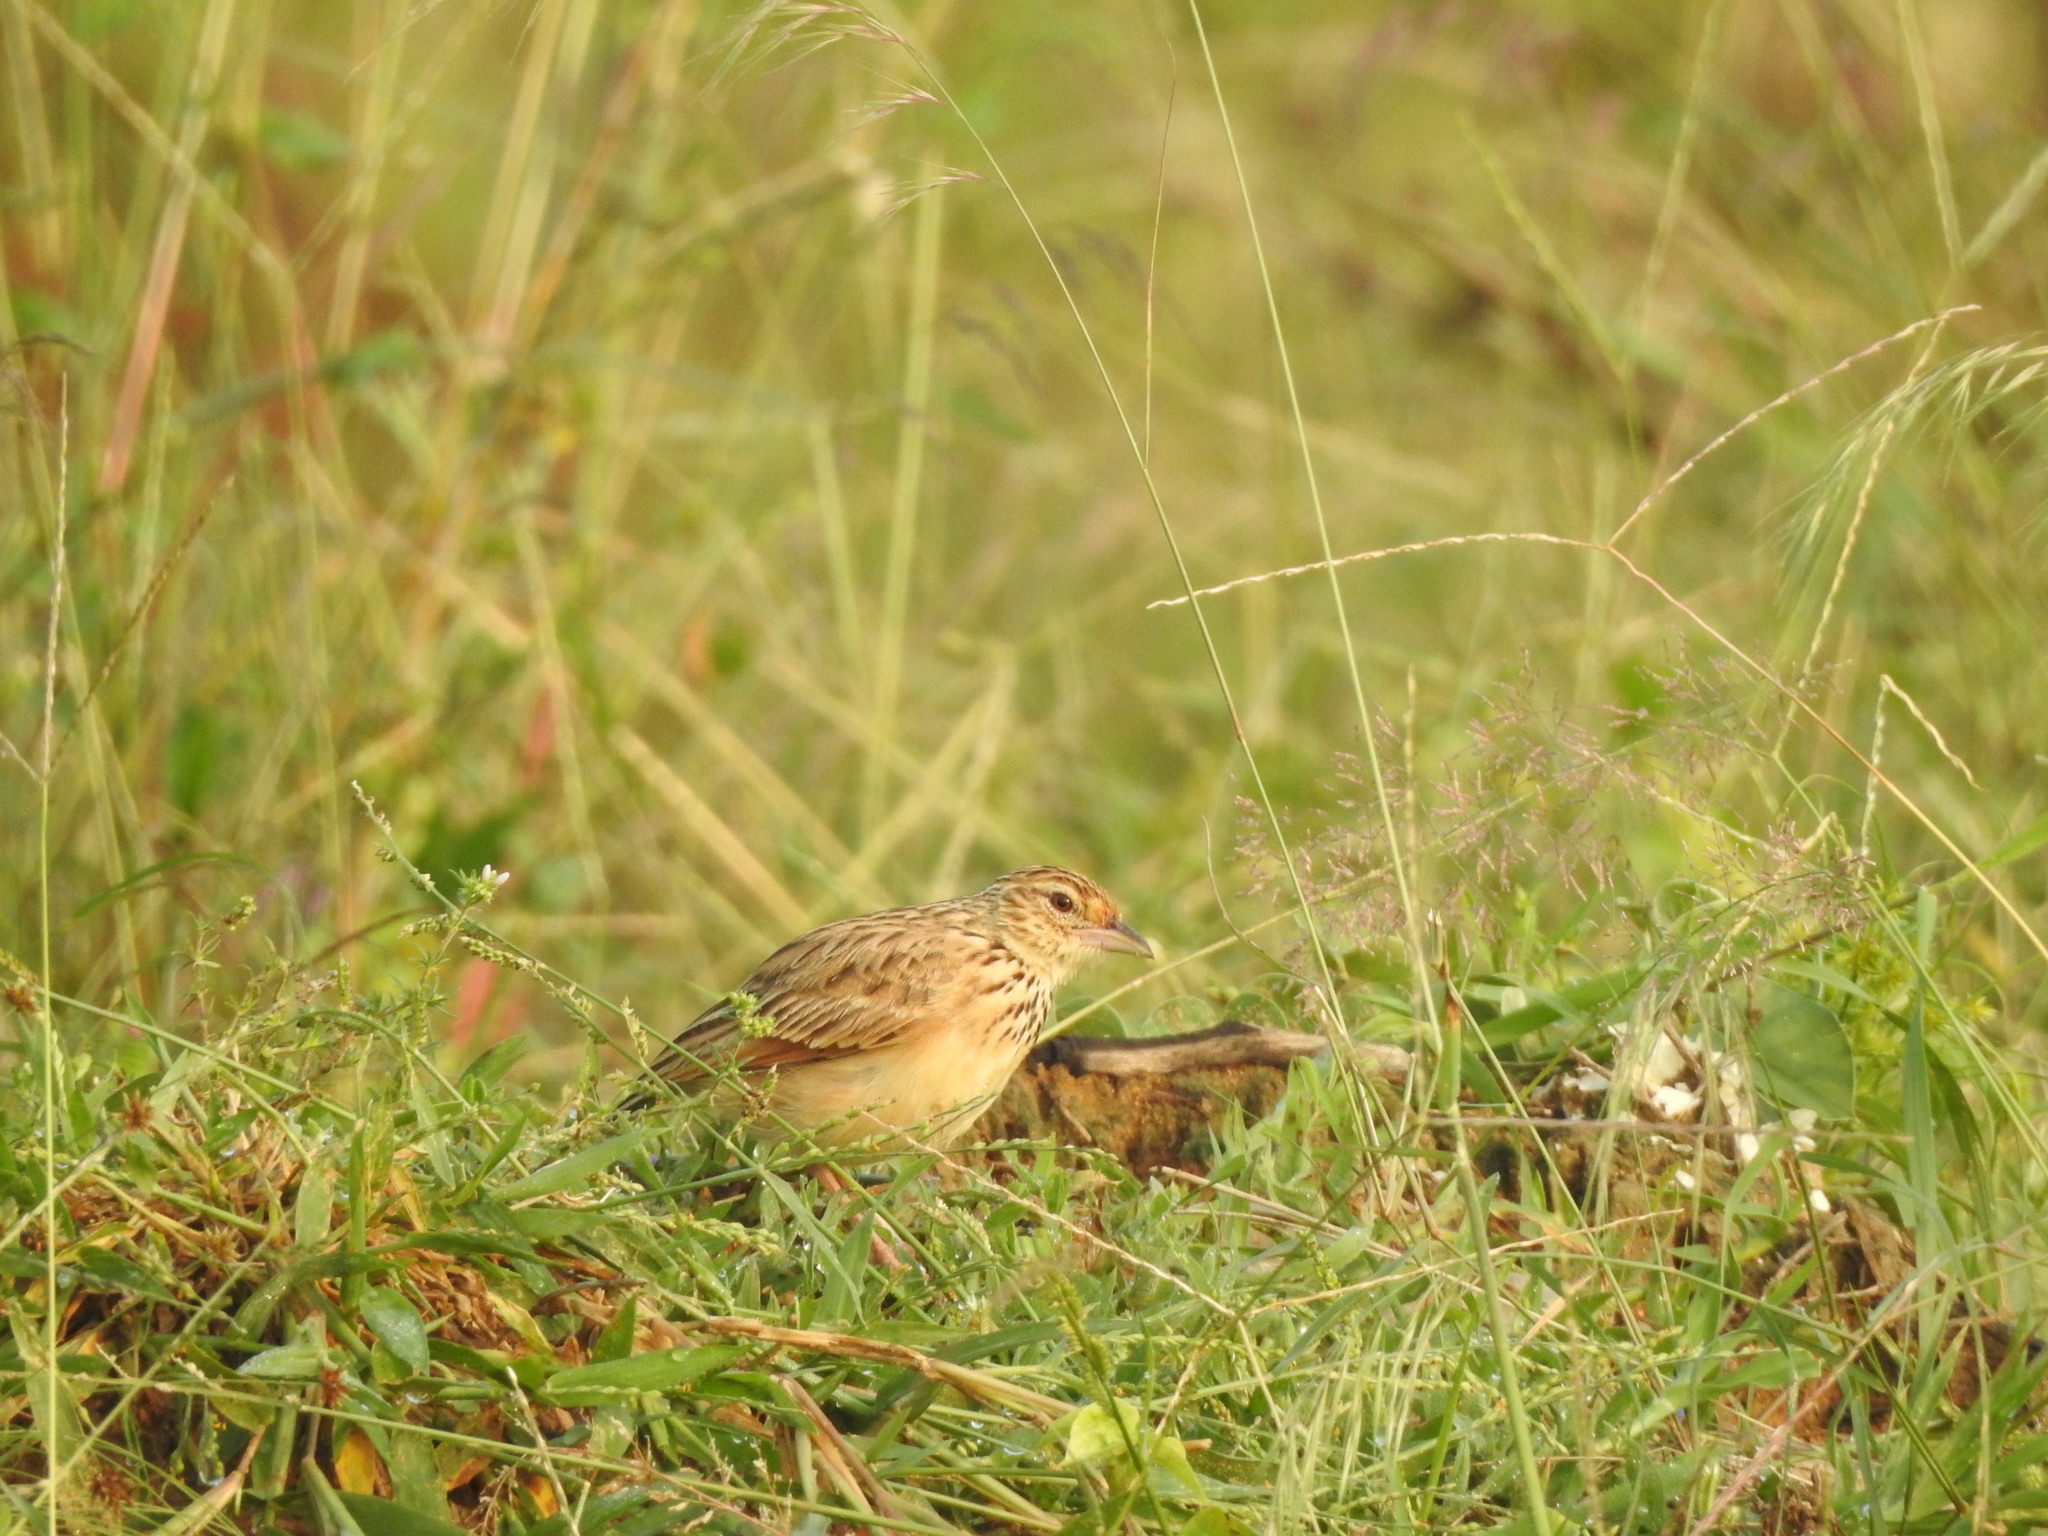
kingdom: Animalia
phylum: Chordata
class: Aves
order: Passeriformes
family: Alaudidae
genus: Mirafra
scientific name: Mirafra affinis
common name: Jerdon's bushlark
